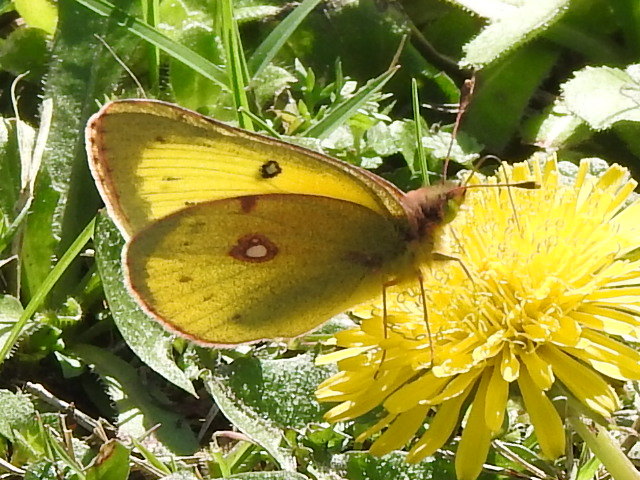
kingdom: Animalia
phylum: Arthropoda
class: Insecta
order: Lepidoptera
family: Pieridae
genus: Colias
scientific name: Colias eurytheme
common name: Alfalfa butterfly
